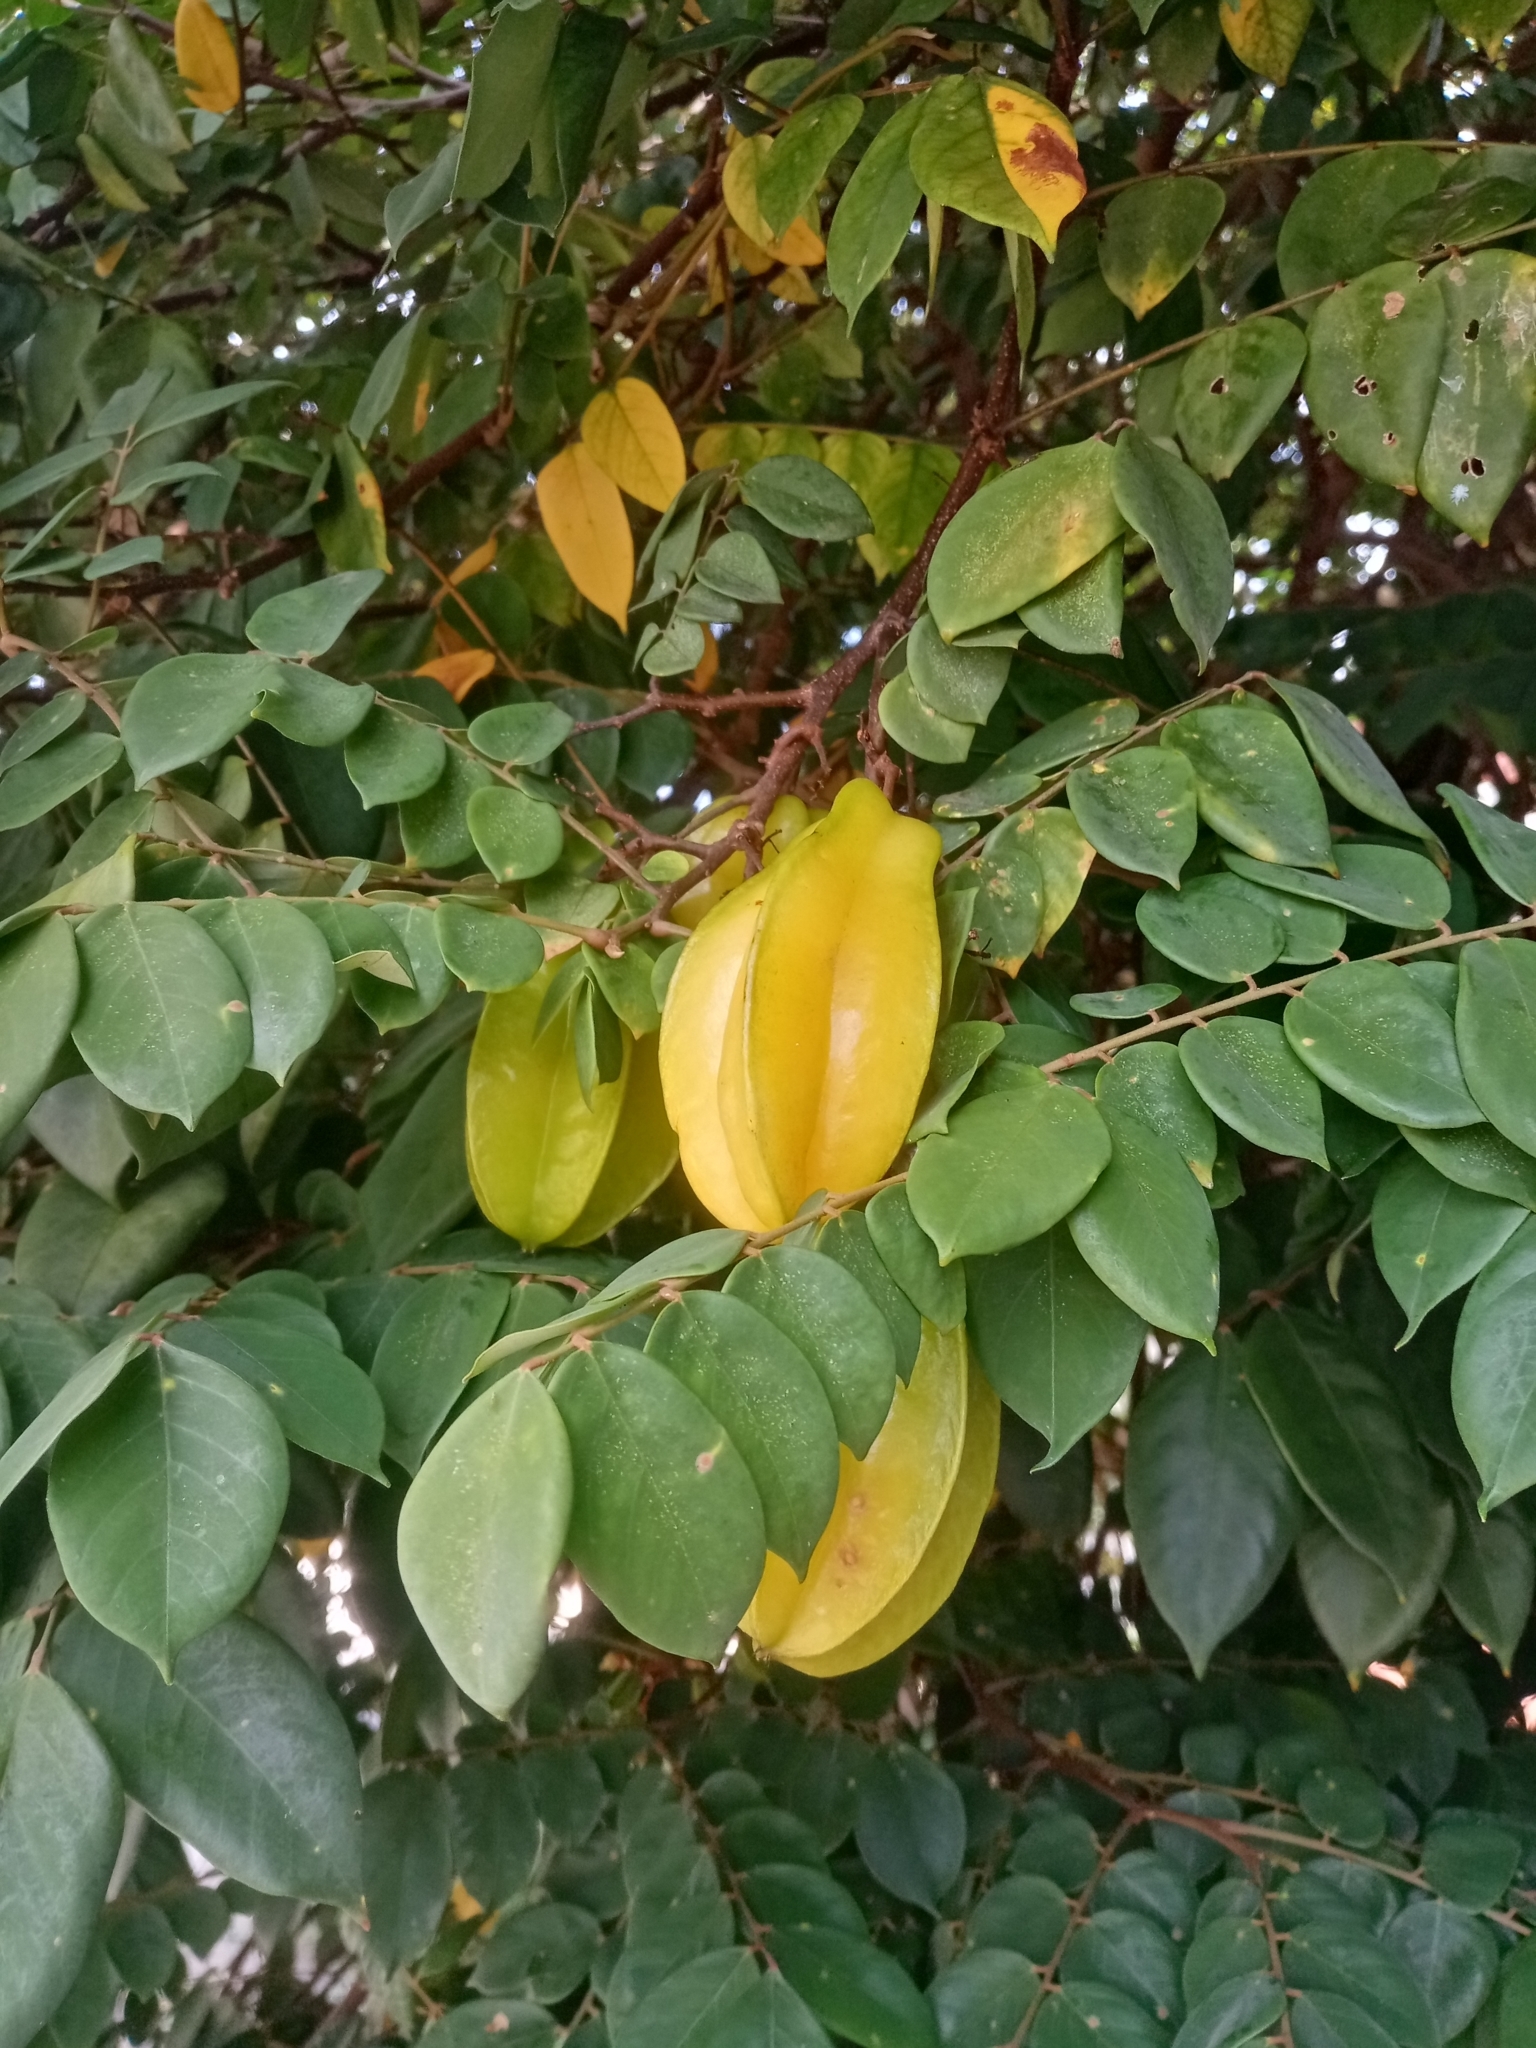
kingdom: Plantae
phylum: Tracheophyta
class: Magnoliopsida
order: Oxalidales
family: Oxalidaceae
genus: Averrhoa
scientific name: Averrhoa carambola
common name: Blimbing
